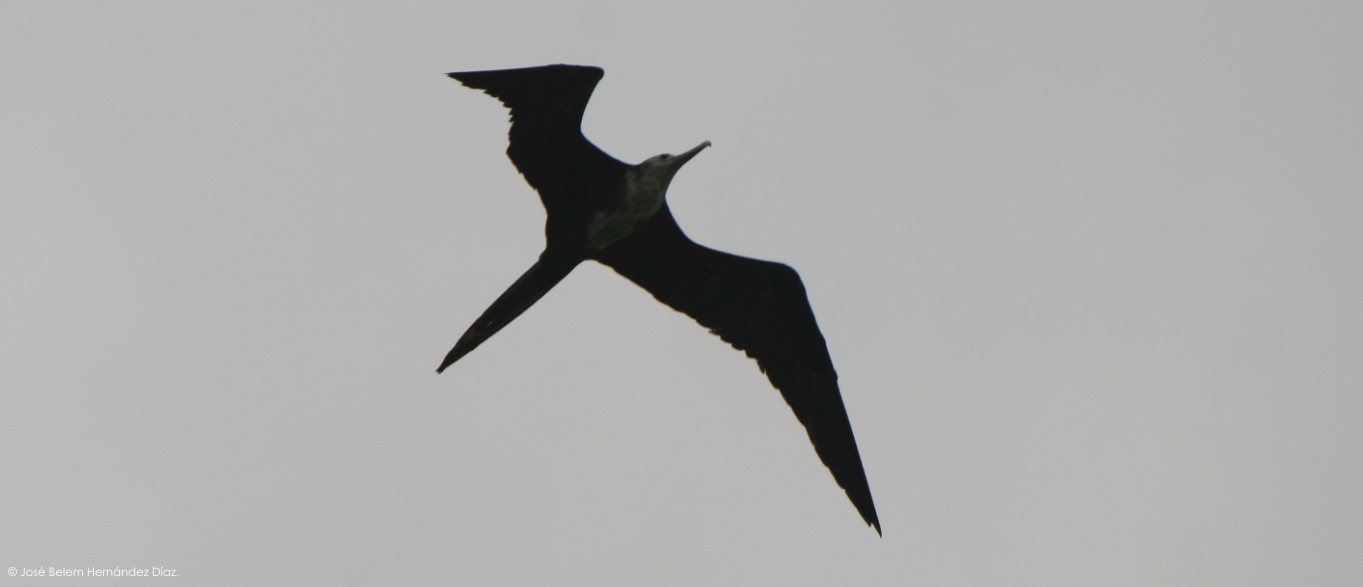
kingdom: Animalia
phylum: Chordata
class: Aves
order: Suliformes
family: Fregatidae
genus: Fregata
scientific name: Fregata magnificens
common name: Magnificent frigatebird
